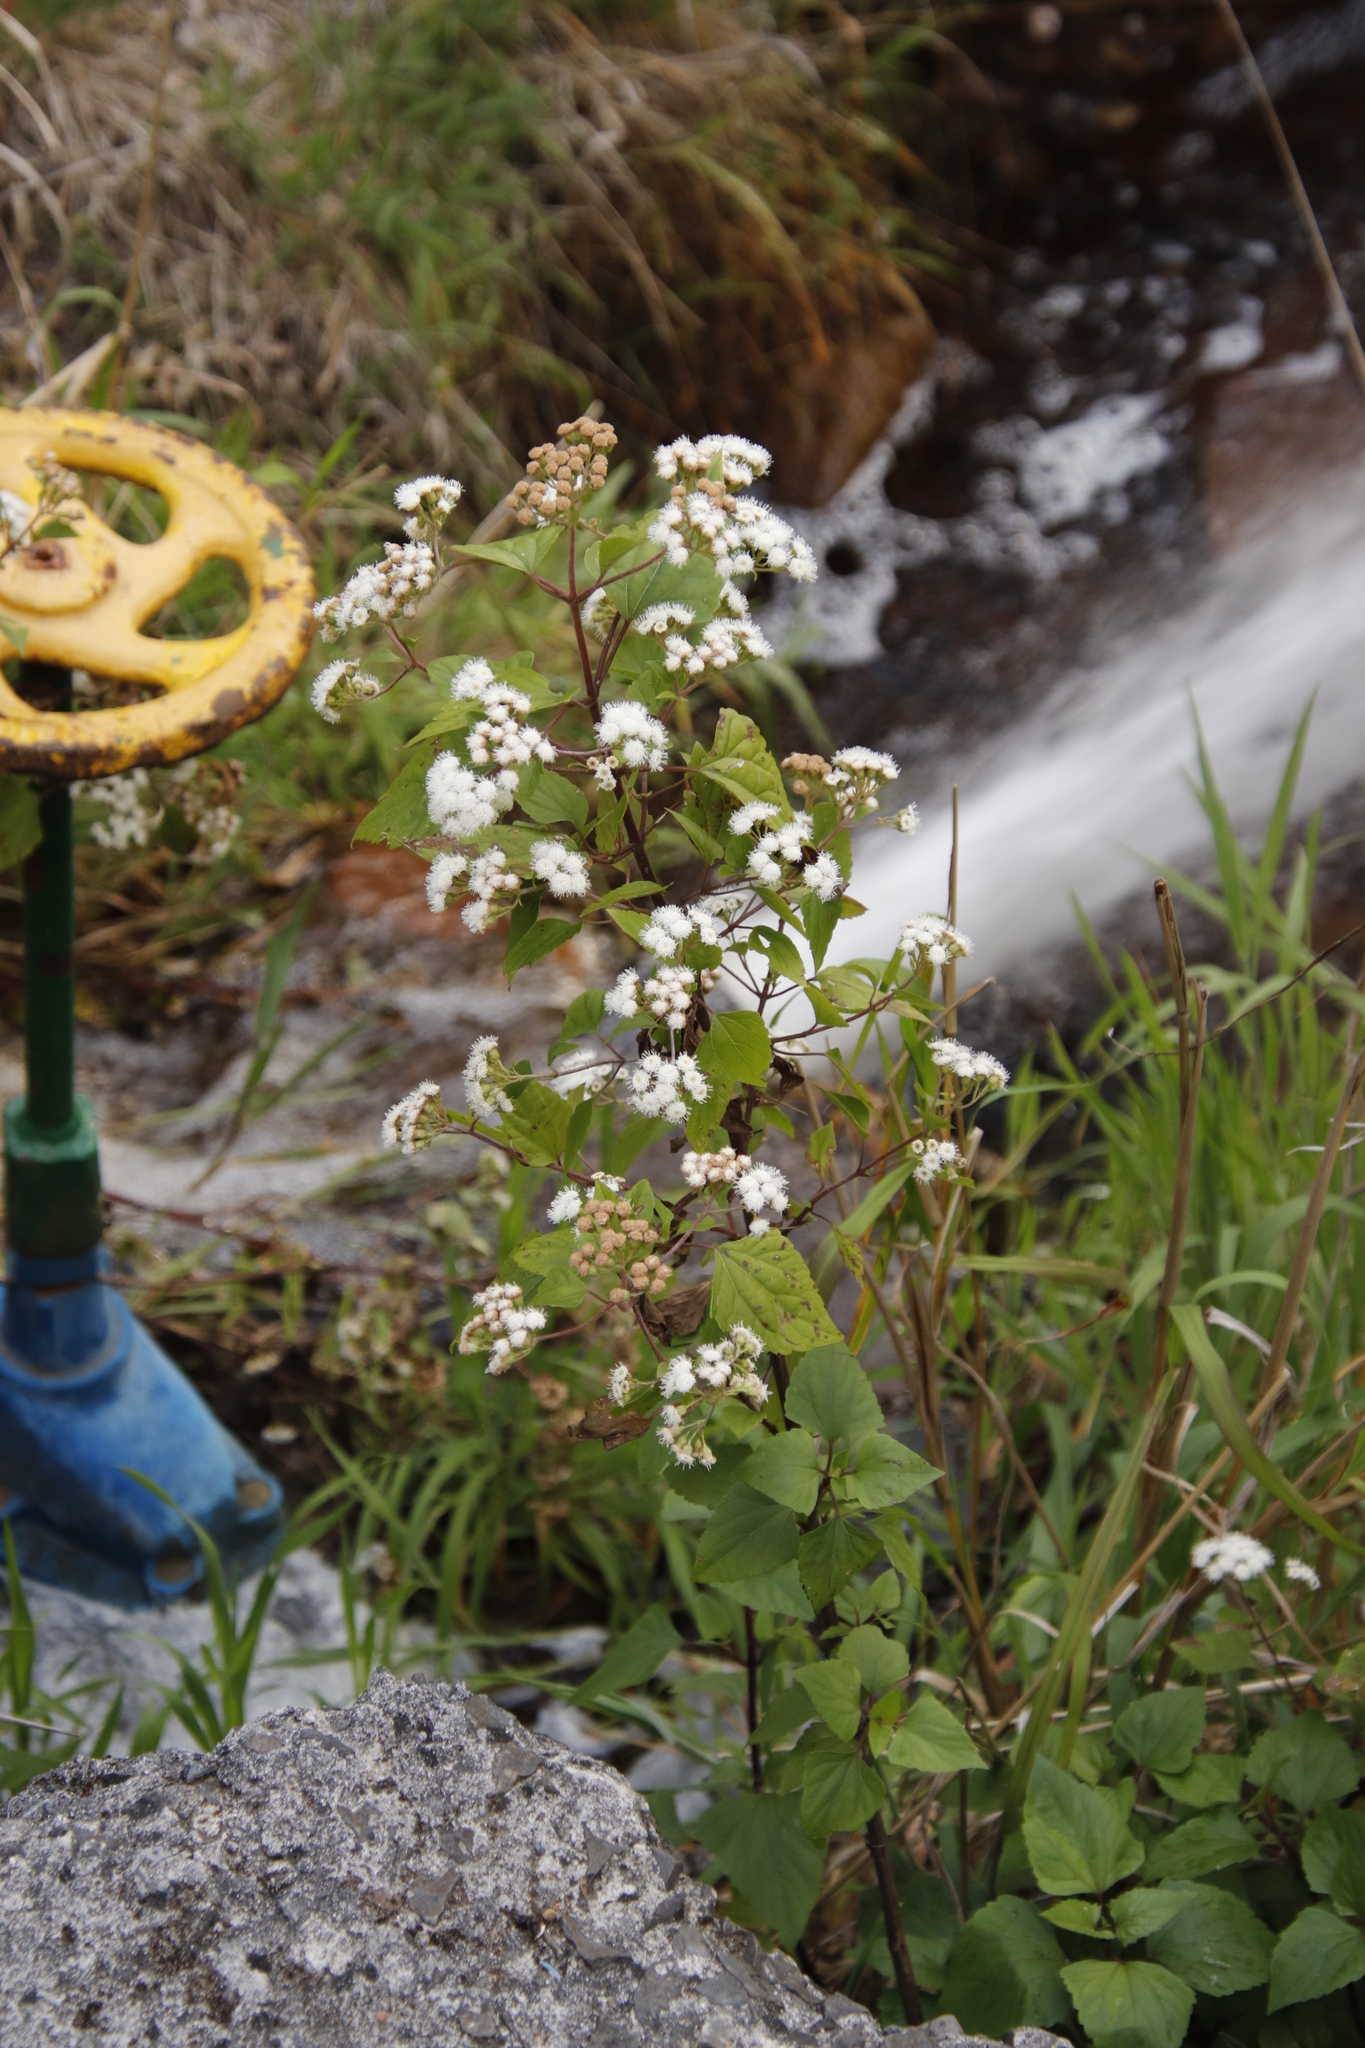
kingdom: Plantae
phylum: Tracheophyta
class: Magnoliopsida
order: Asterales
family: Asteraceae
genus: Ageratina
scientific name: Ageratina adenophora
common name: Sticky snakeroot
